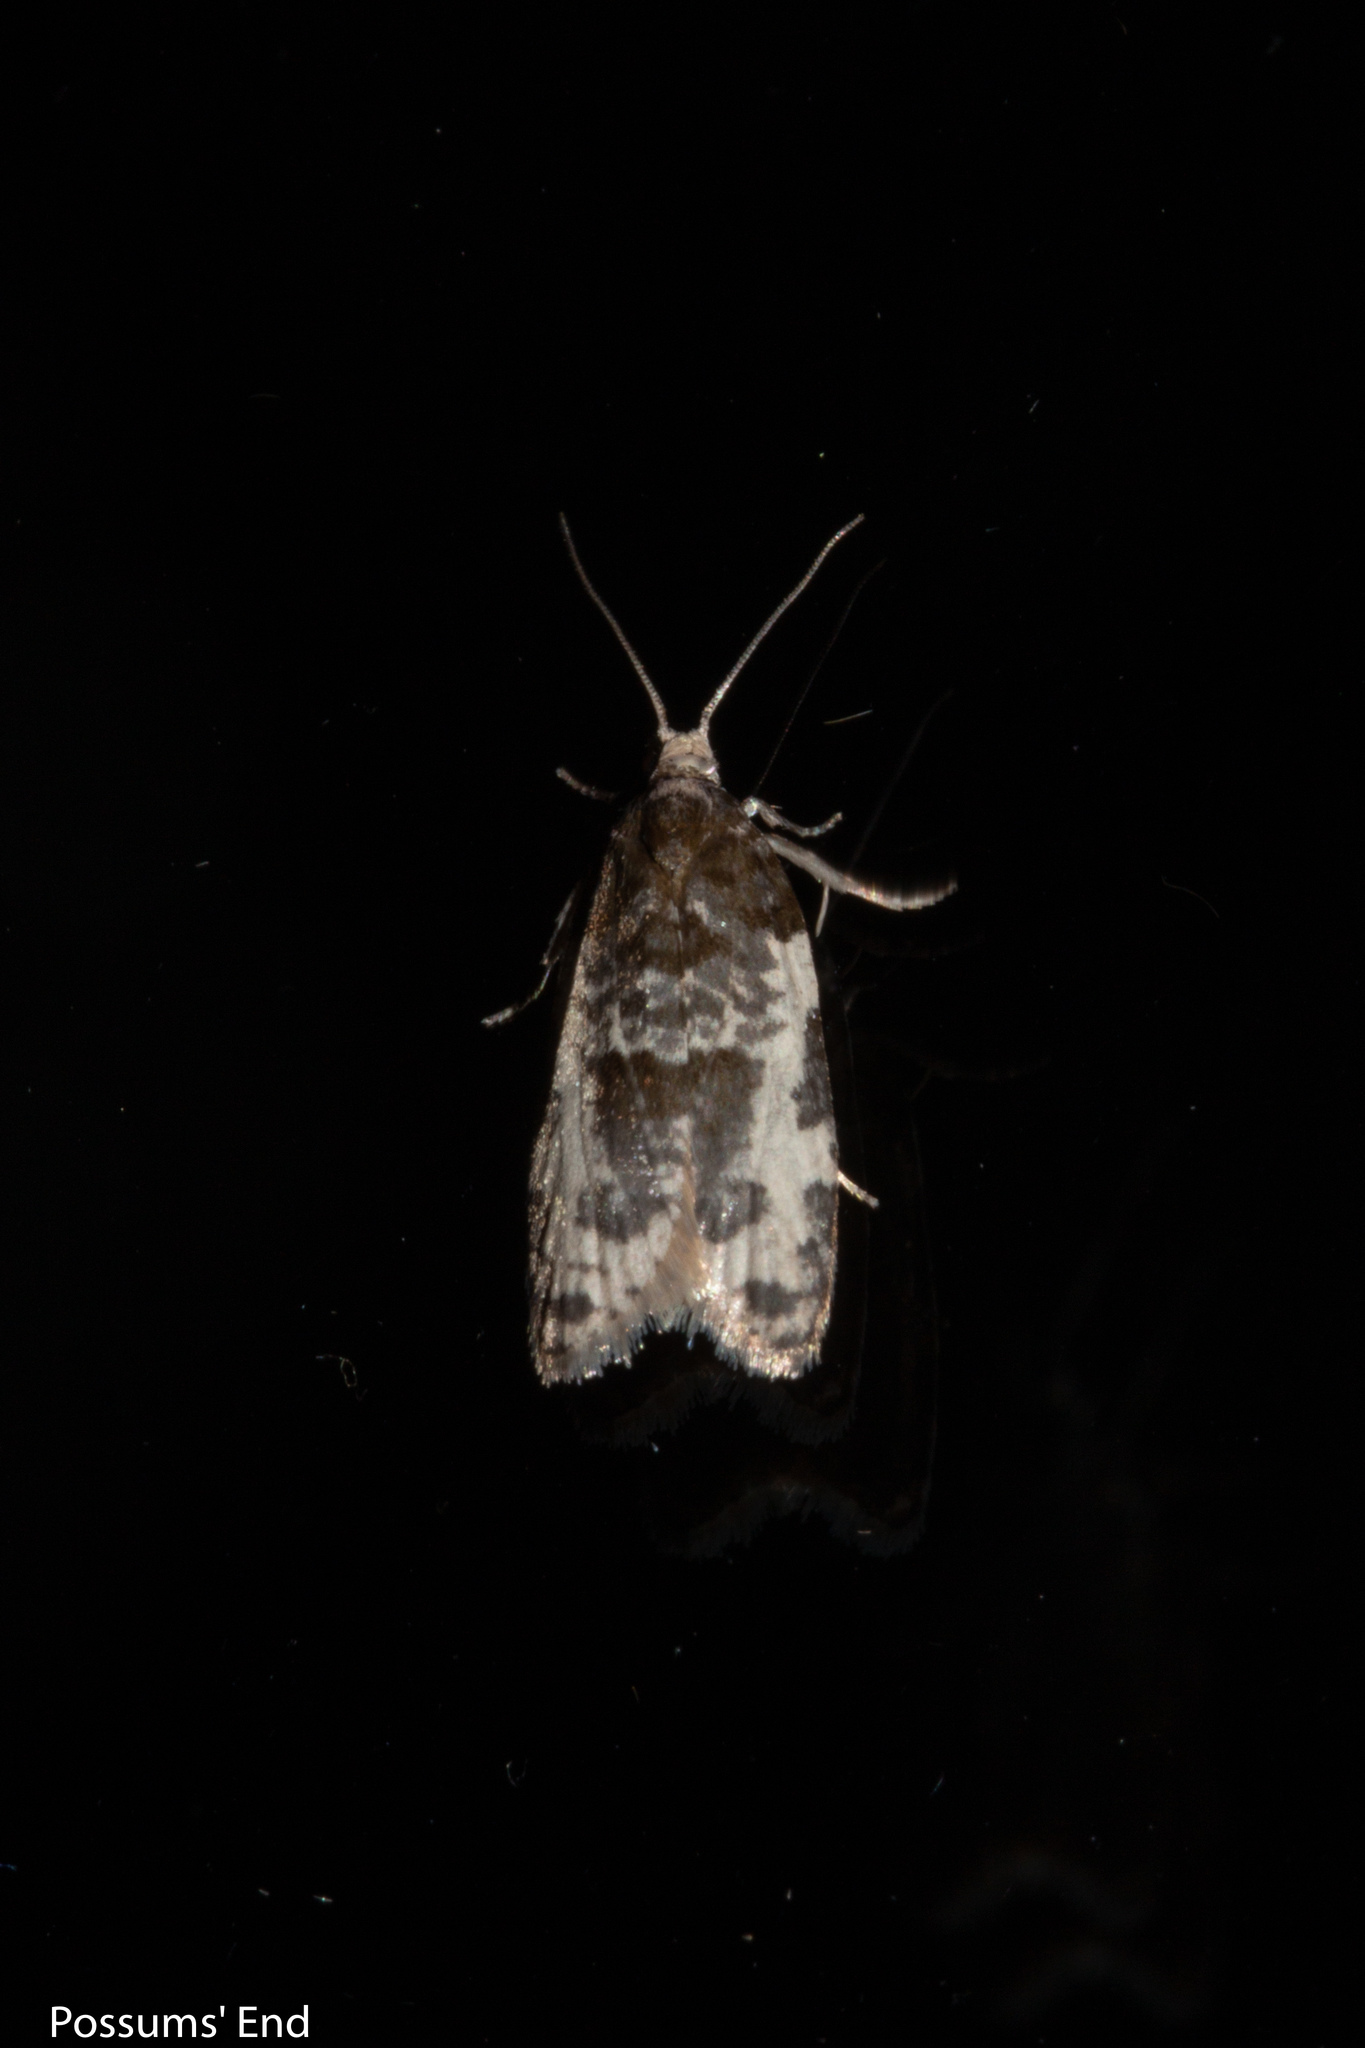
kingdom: Animalia
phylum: Arthropoda
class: Insecta
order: Lepidoptera
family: Tortricidae
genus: Prothelymna
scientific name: Prothelymna niphostrota
